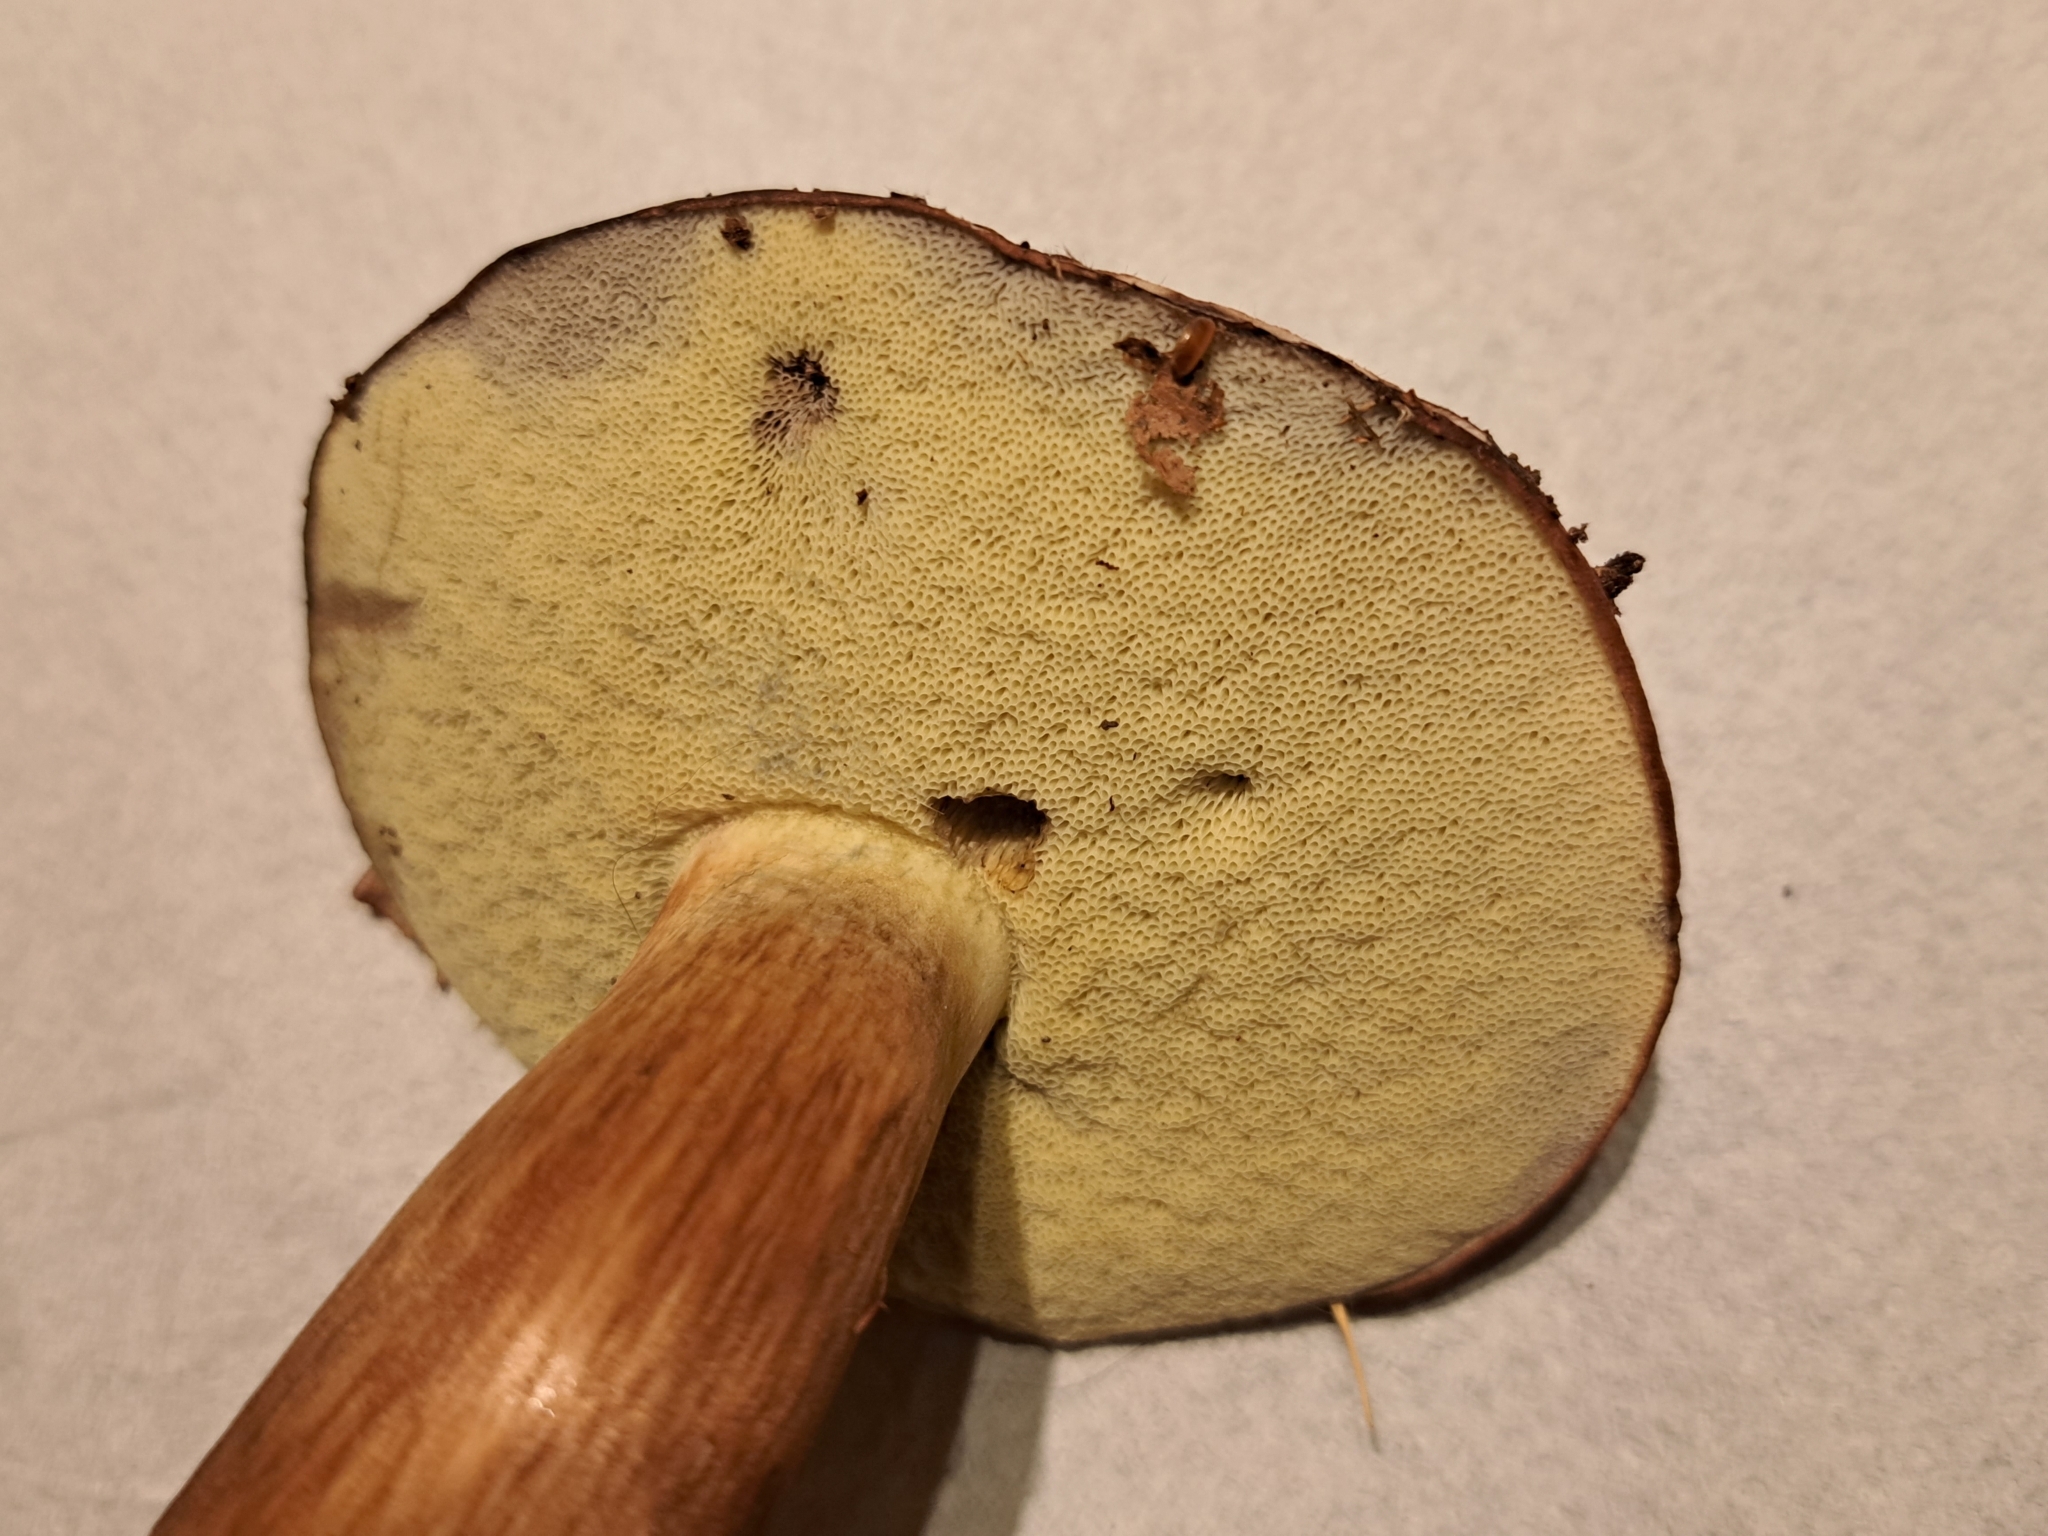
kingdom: Fungi
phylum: Basidiomycota
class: Agaricomycetes
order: Boletales
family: Boletaceae
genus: Imleria
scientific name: Imleria badia
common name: Bay bolete
